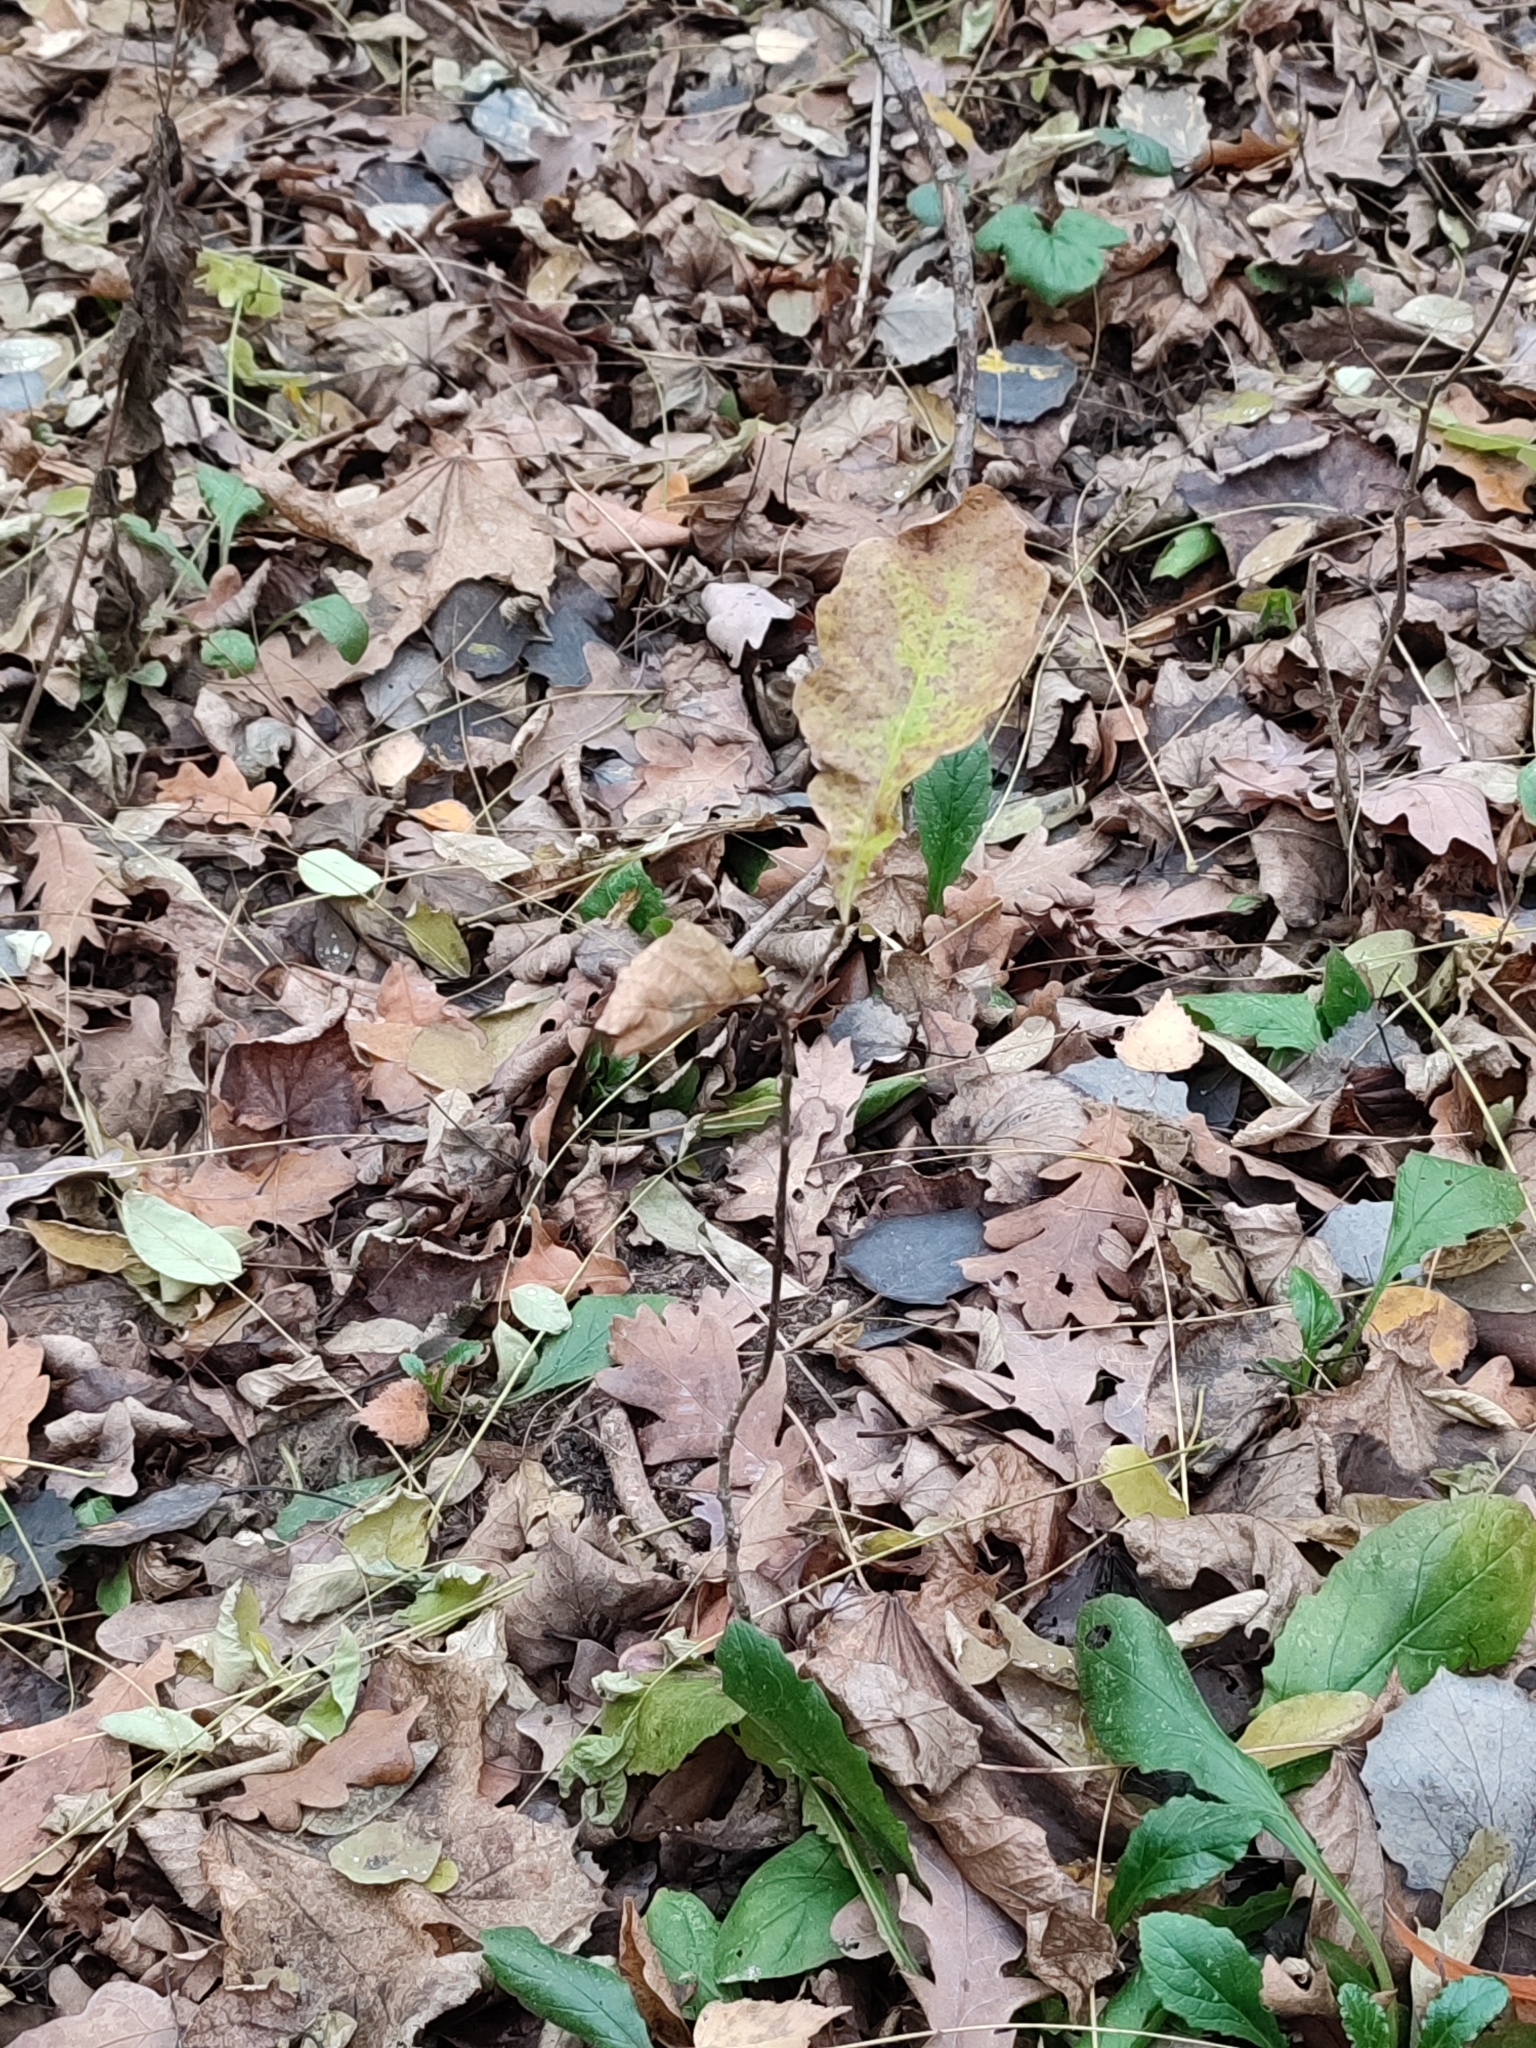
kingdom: Plantae
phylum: Tracheophyta
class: Magnoliopsida
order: Fagales
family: Fagaceae
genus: Quercus
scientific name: Quercus robur
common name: Pedunculate oak
